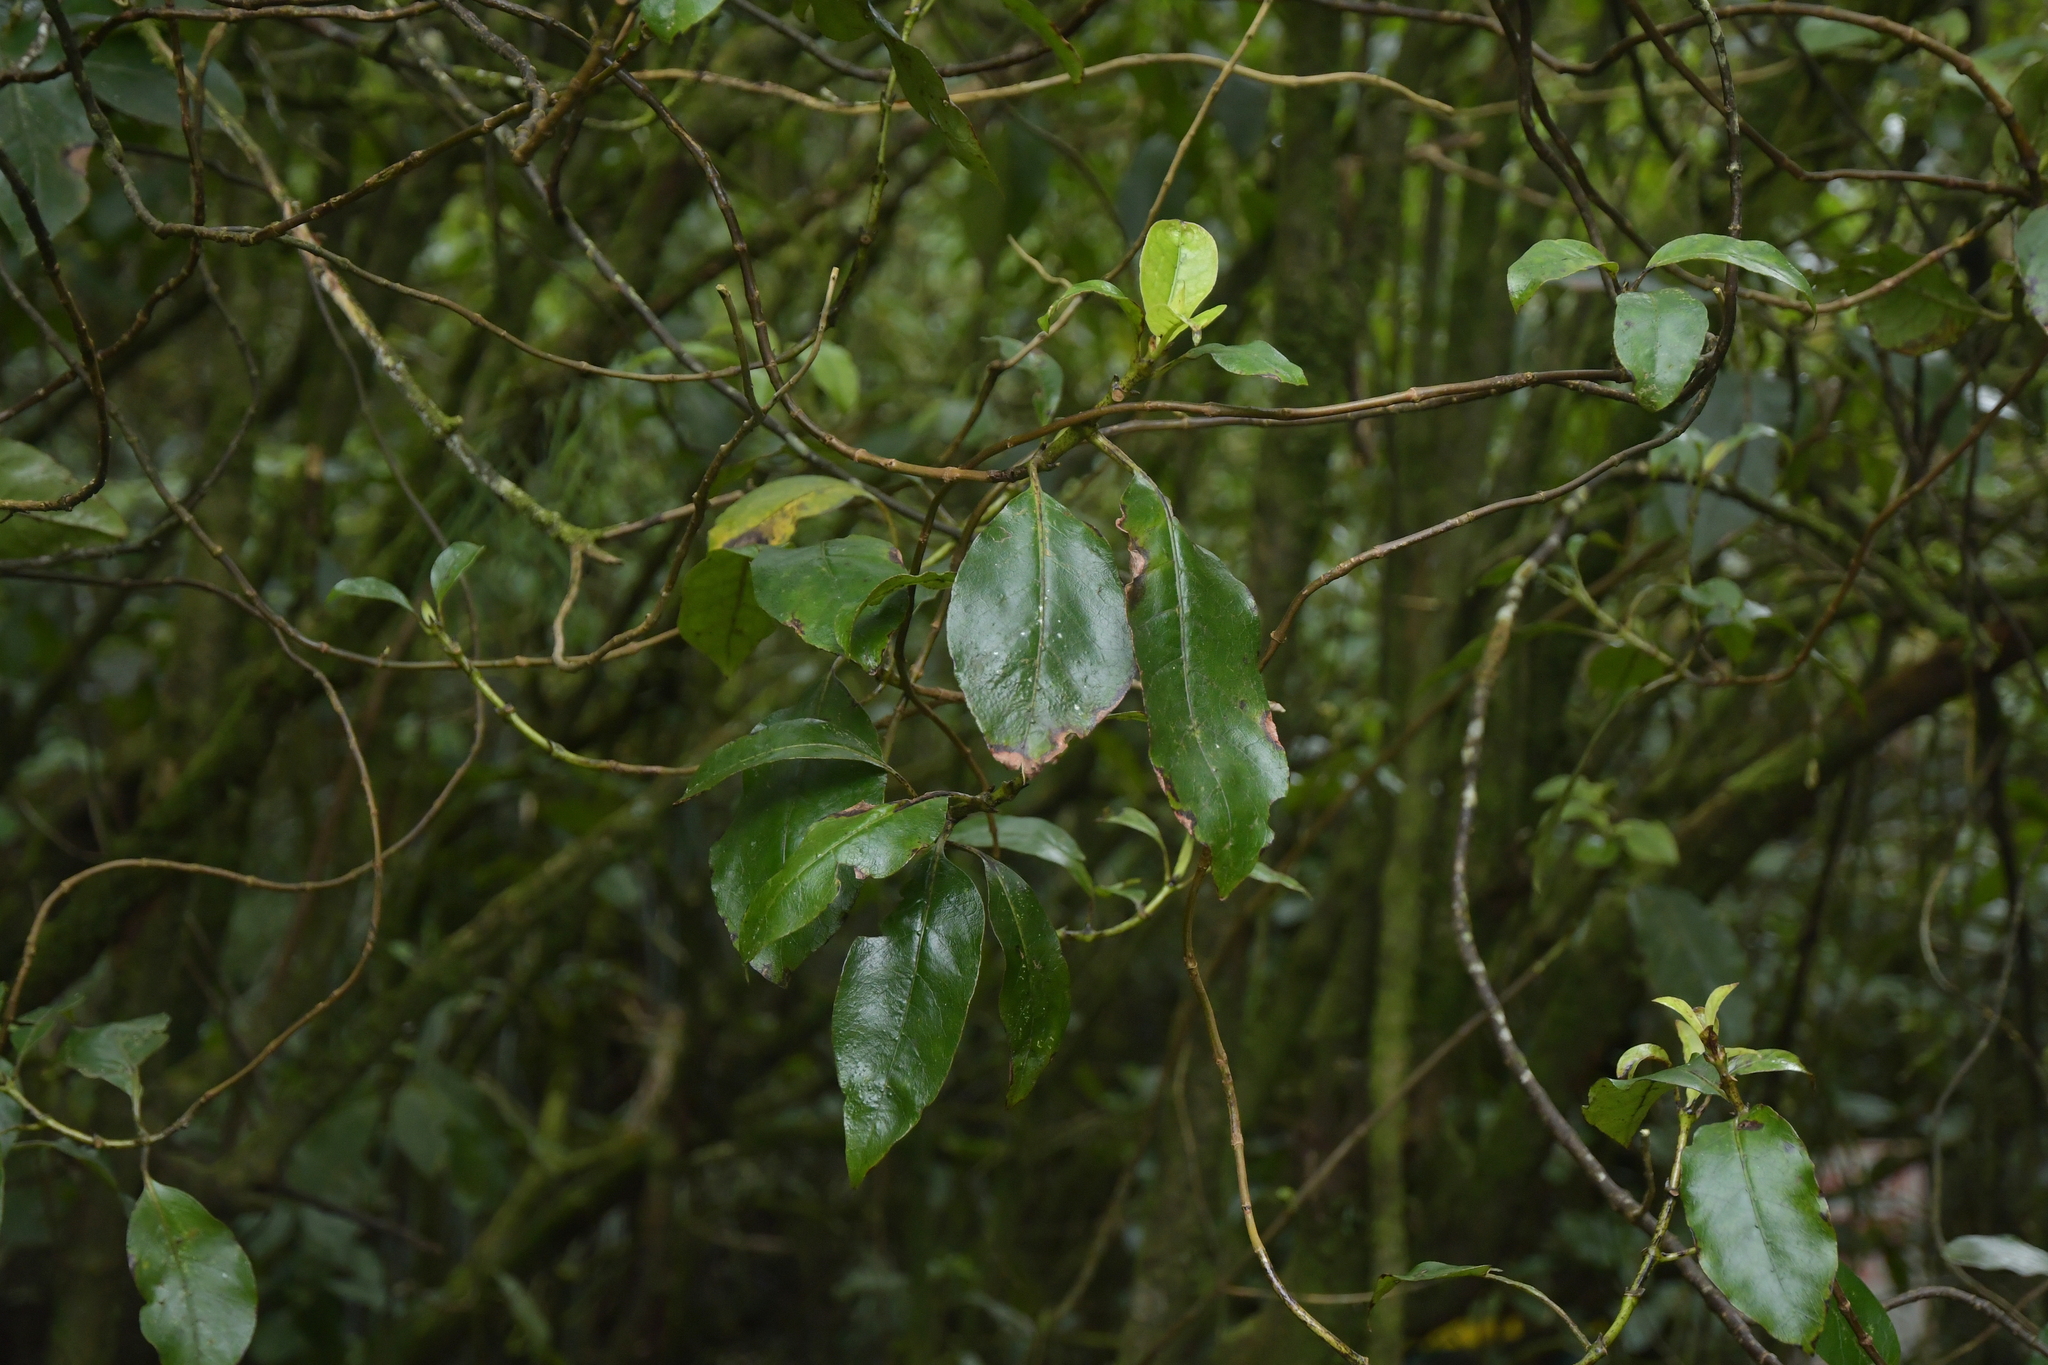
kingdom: Plantae
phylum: Tracheophyta
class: Magnoliopsida
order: Gentianales
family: Rubiaceae
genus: Coprosma
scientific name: Coprosma autumnalis
